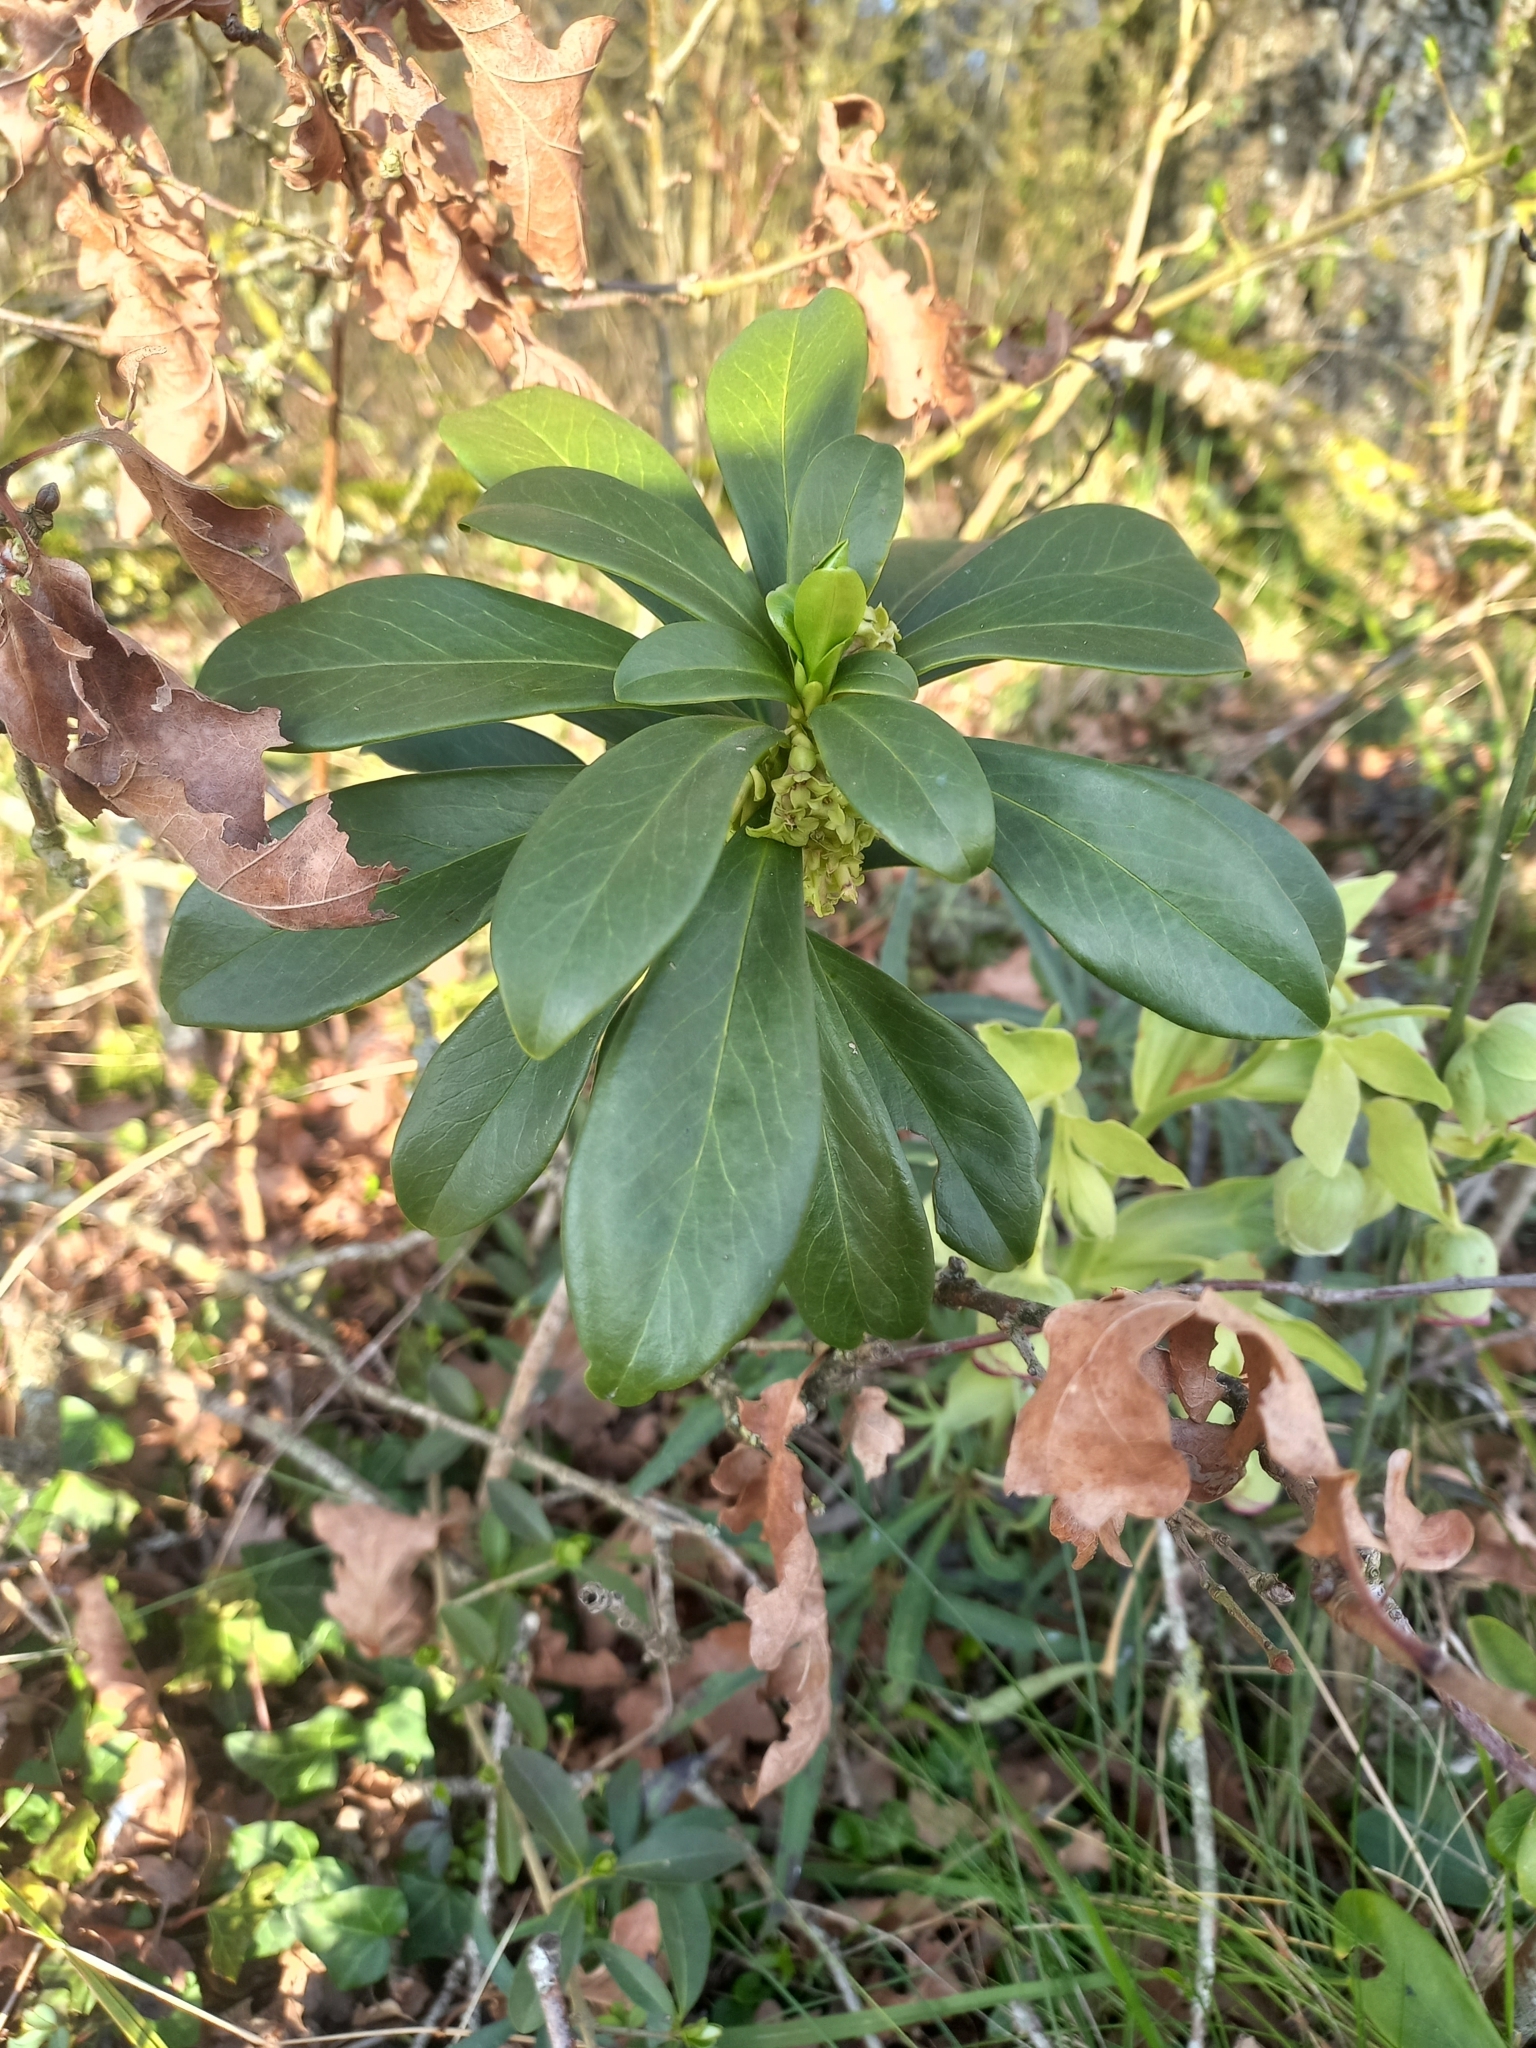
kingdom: Plantae
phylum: Tracheophyta
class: Magnoliopsida
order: Malvales
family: Thymelaeaceae
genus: Daphne
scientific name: Daphne laureola
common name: Spurge-laurel
